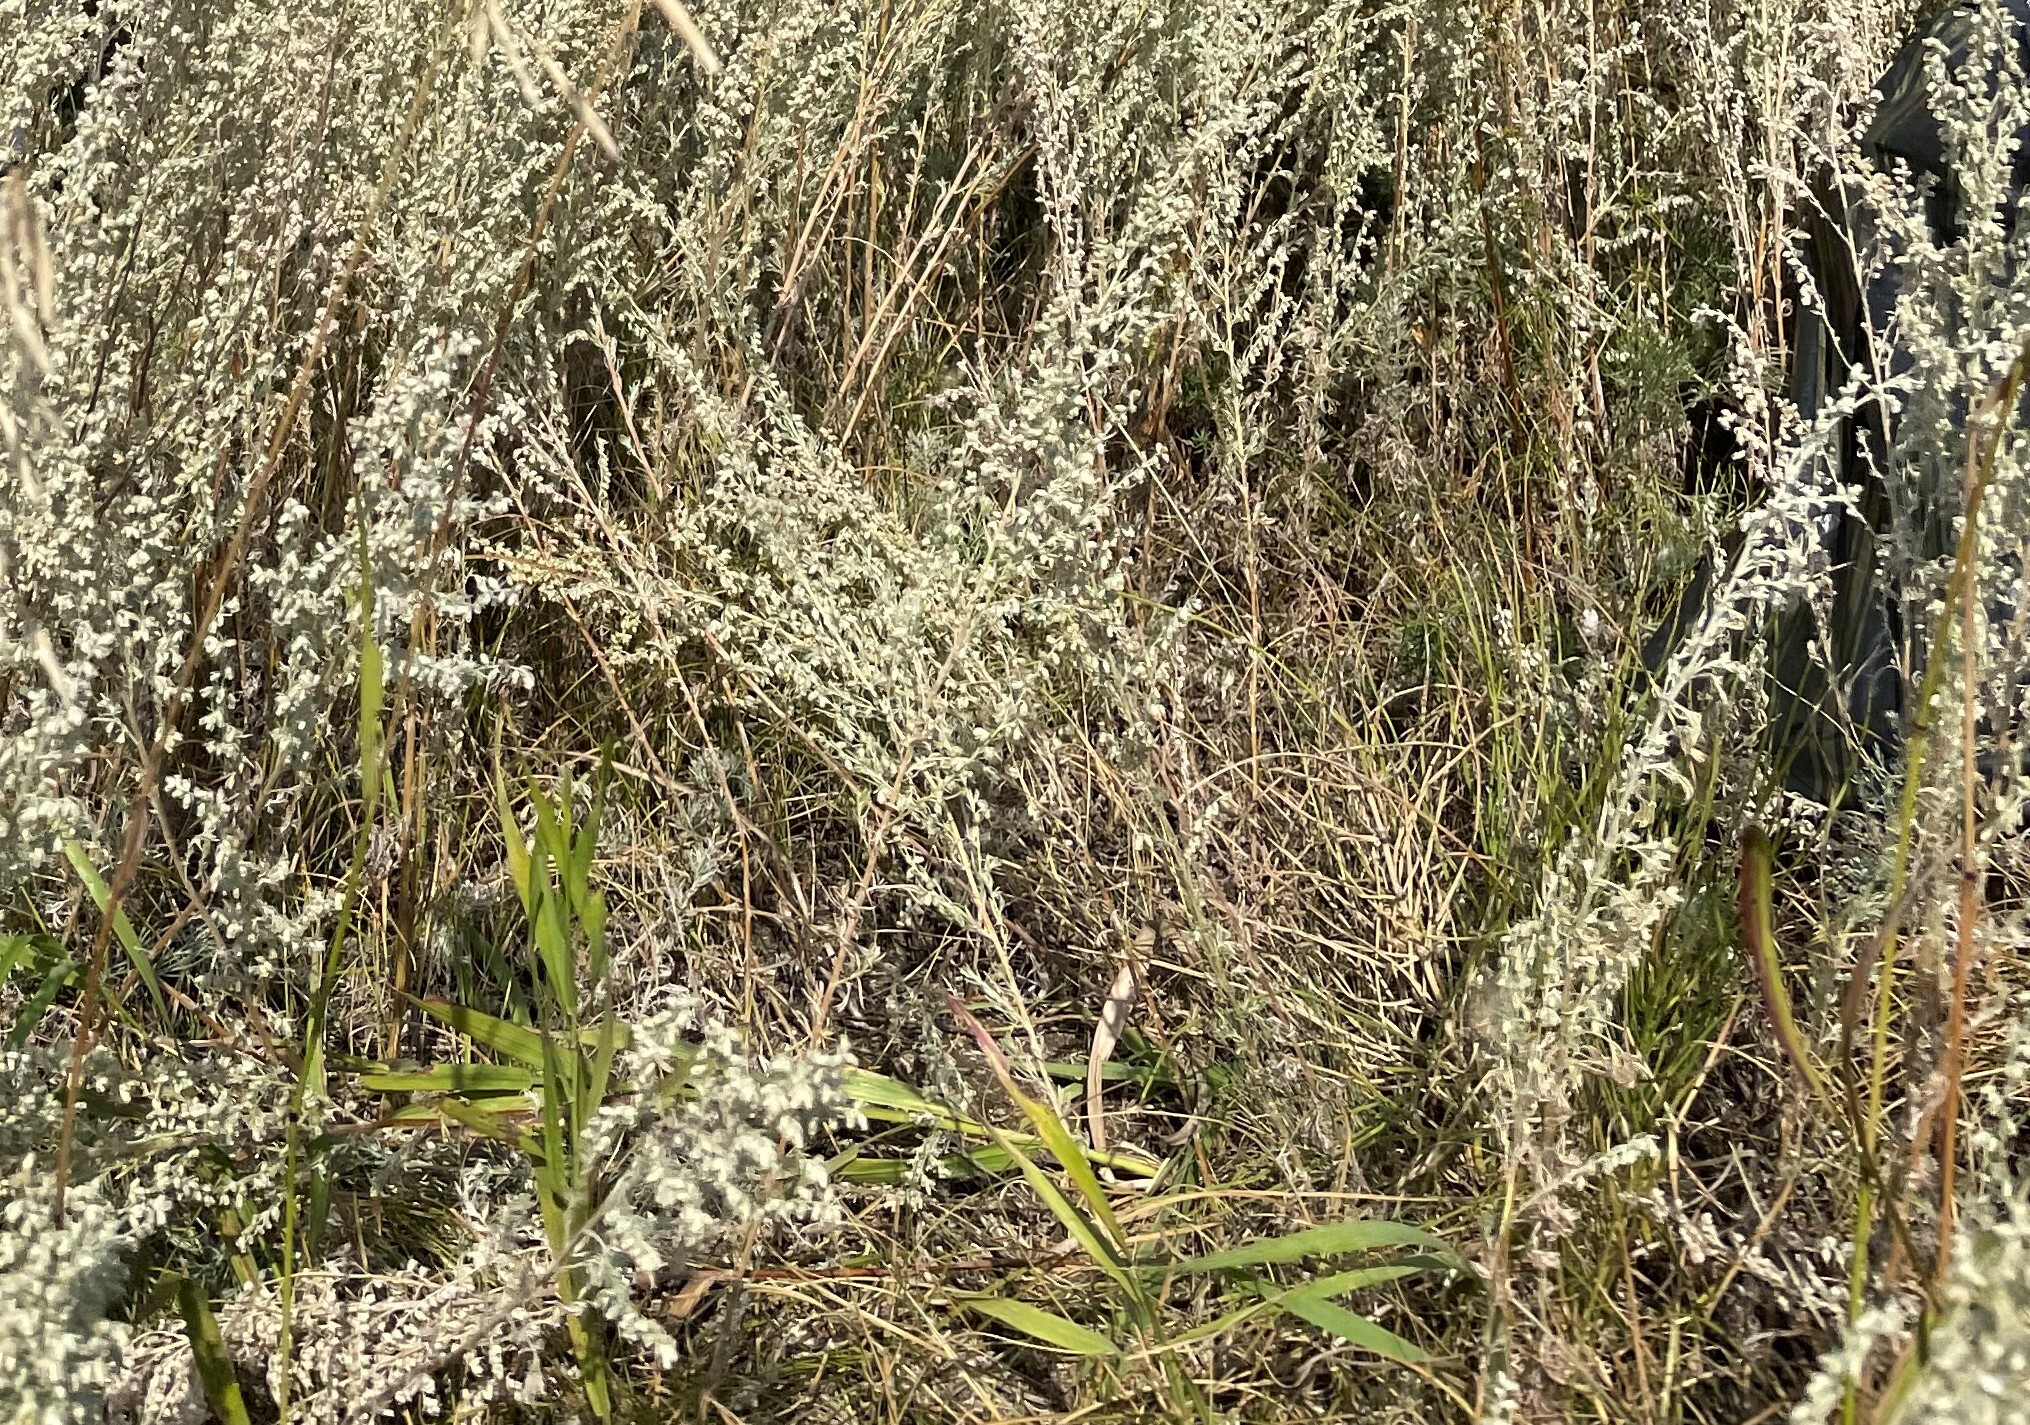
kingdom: Plantae
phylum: Tracheophyta
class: Magnoliopsida
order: Asterales
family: Asteraceae
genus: Artemisia
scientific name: Artemisia austriaca
